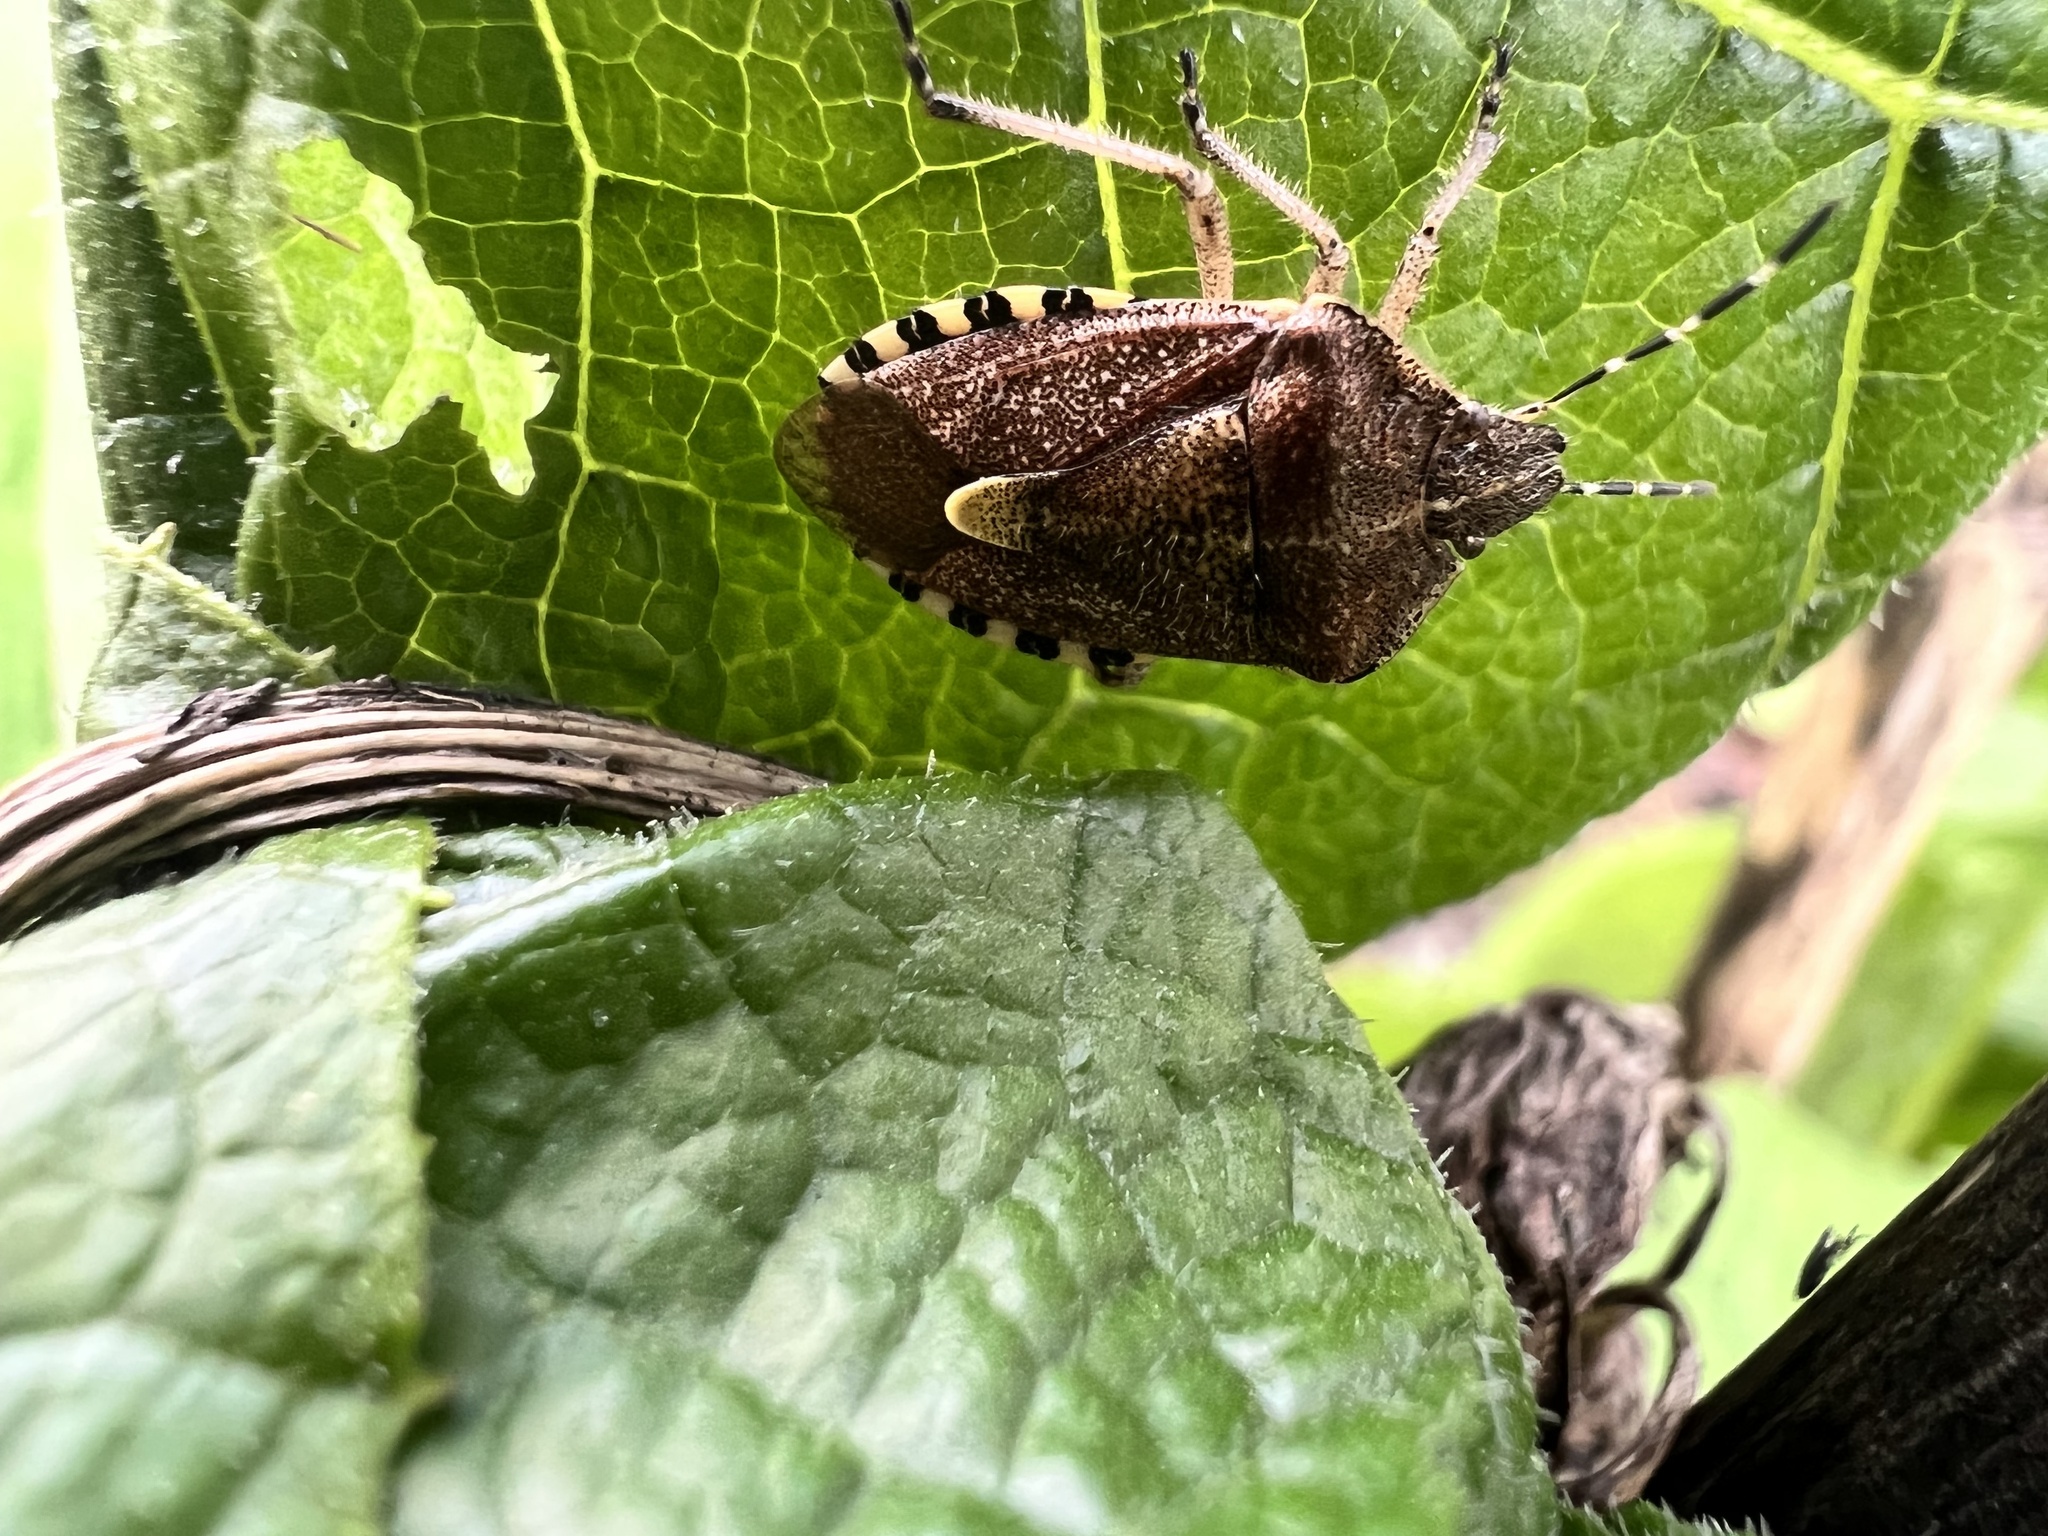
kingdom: Animalia
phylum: Arthropoda
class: Insecta
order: Hemiptera
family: Pentatomidae
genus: Dolycoris
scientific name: Dolycoris baccarum
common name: Sloe bug
